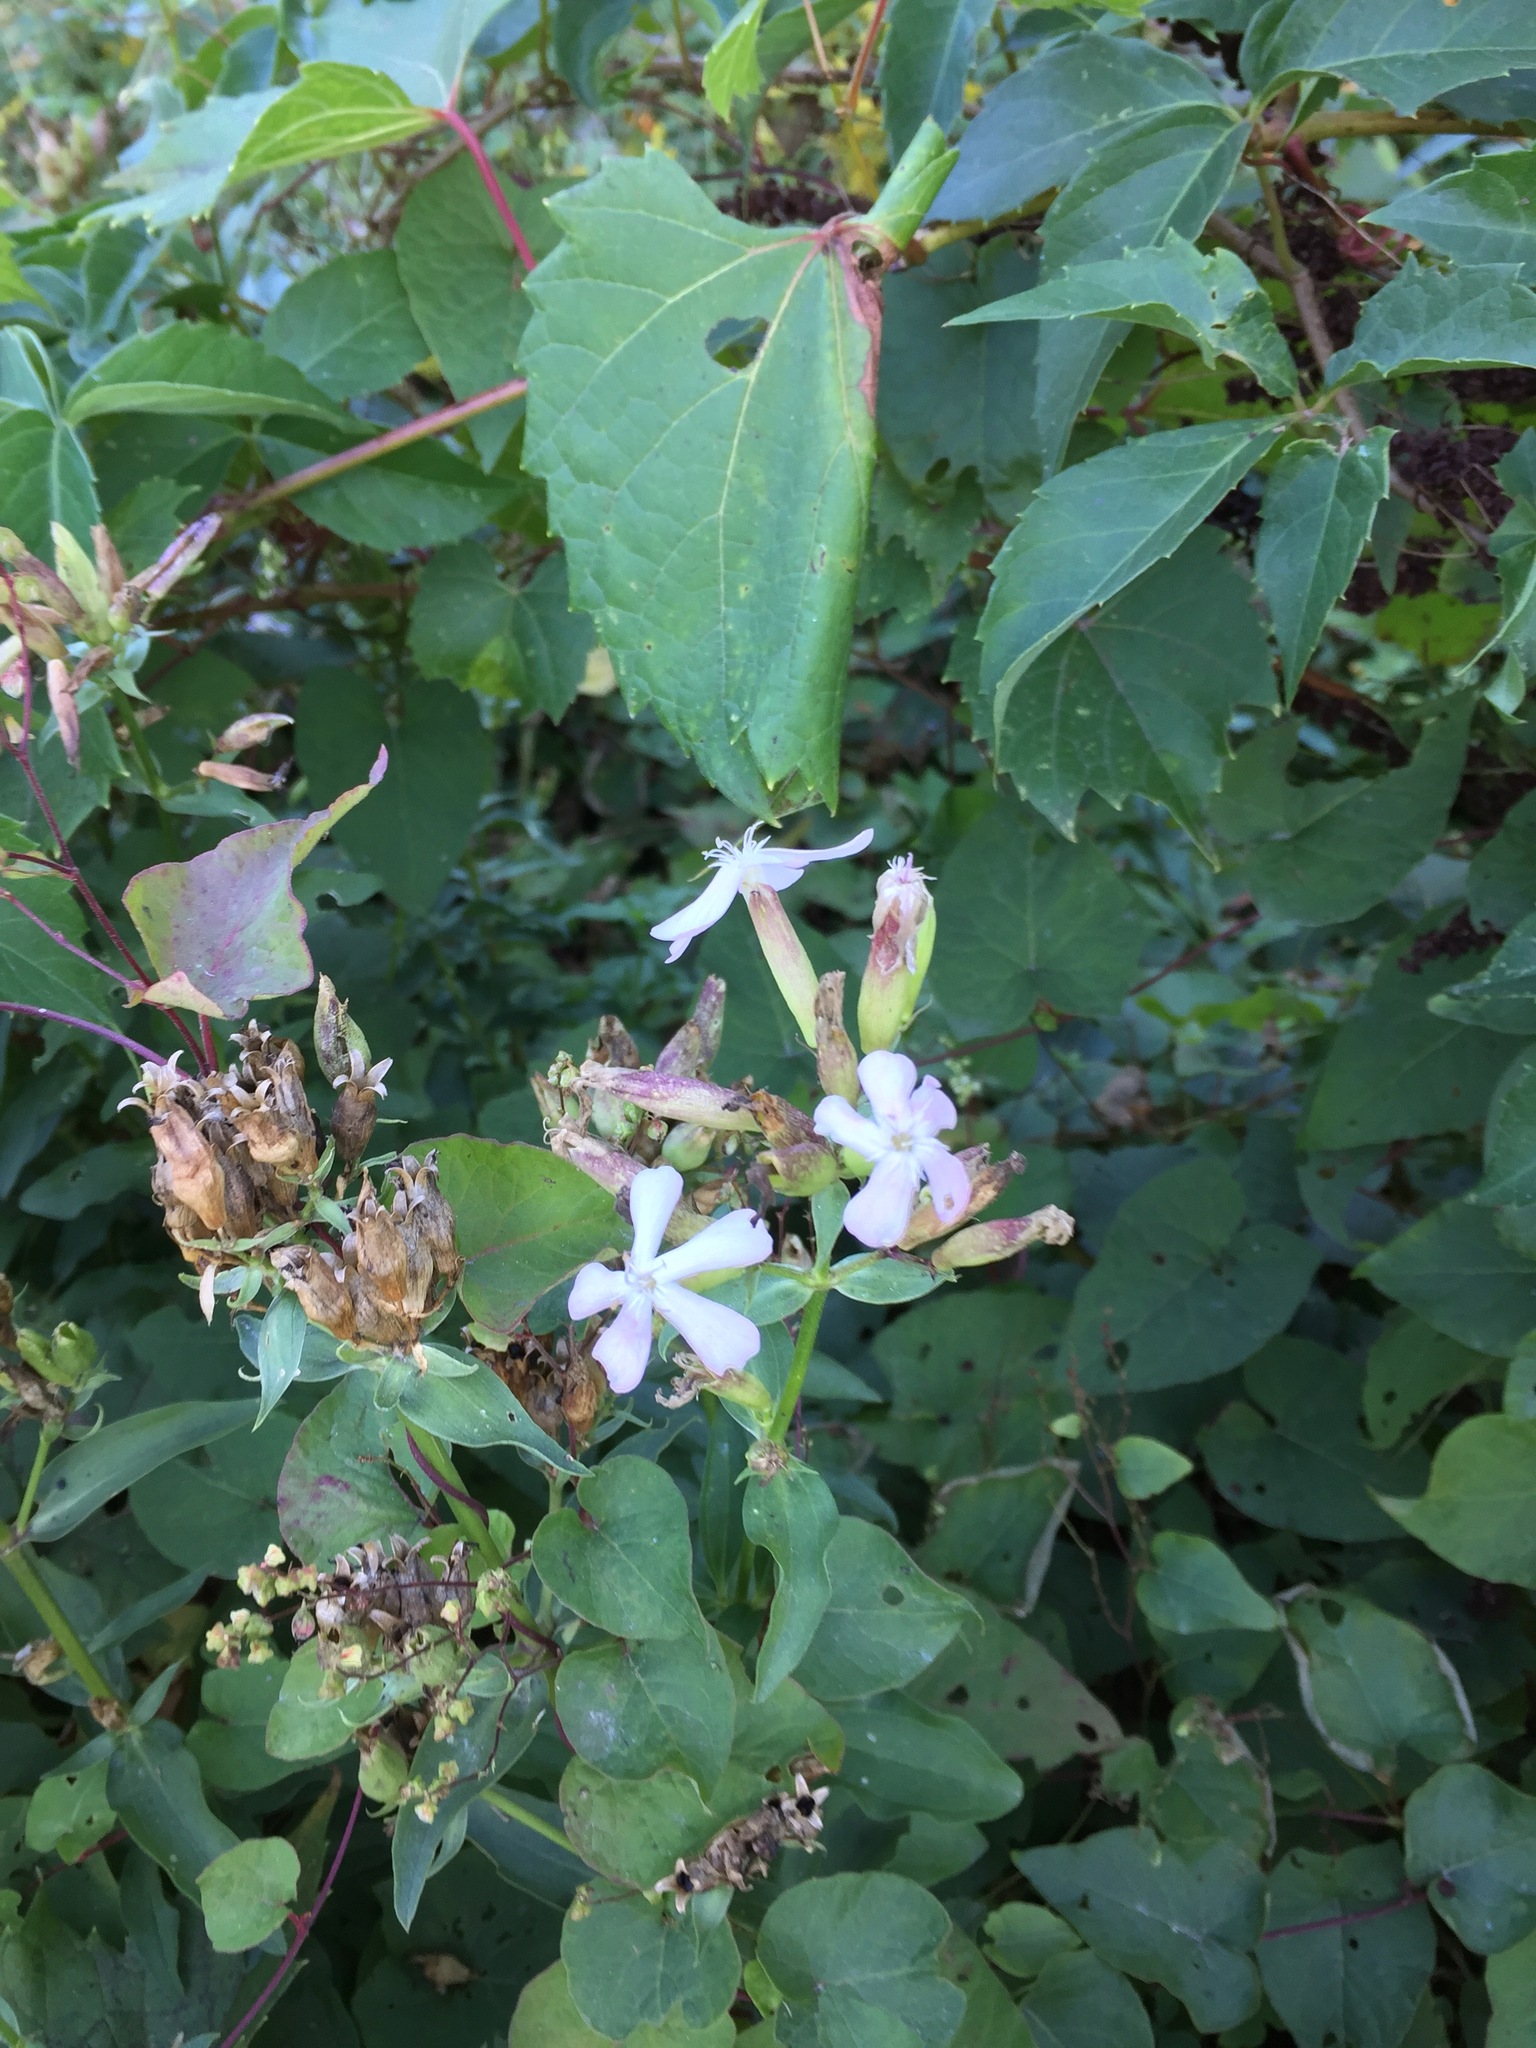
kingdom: Plantae
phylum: Tracheophyta
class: Magnoliopsida
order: Caryophyllales
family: Caryophyllaceae
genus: Saponaria
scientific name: Saponaria officinalis
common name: Soapwort
